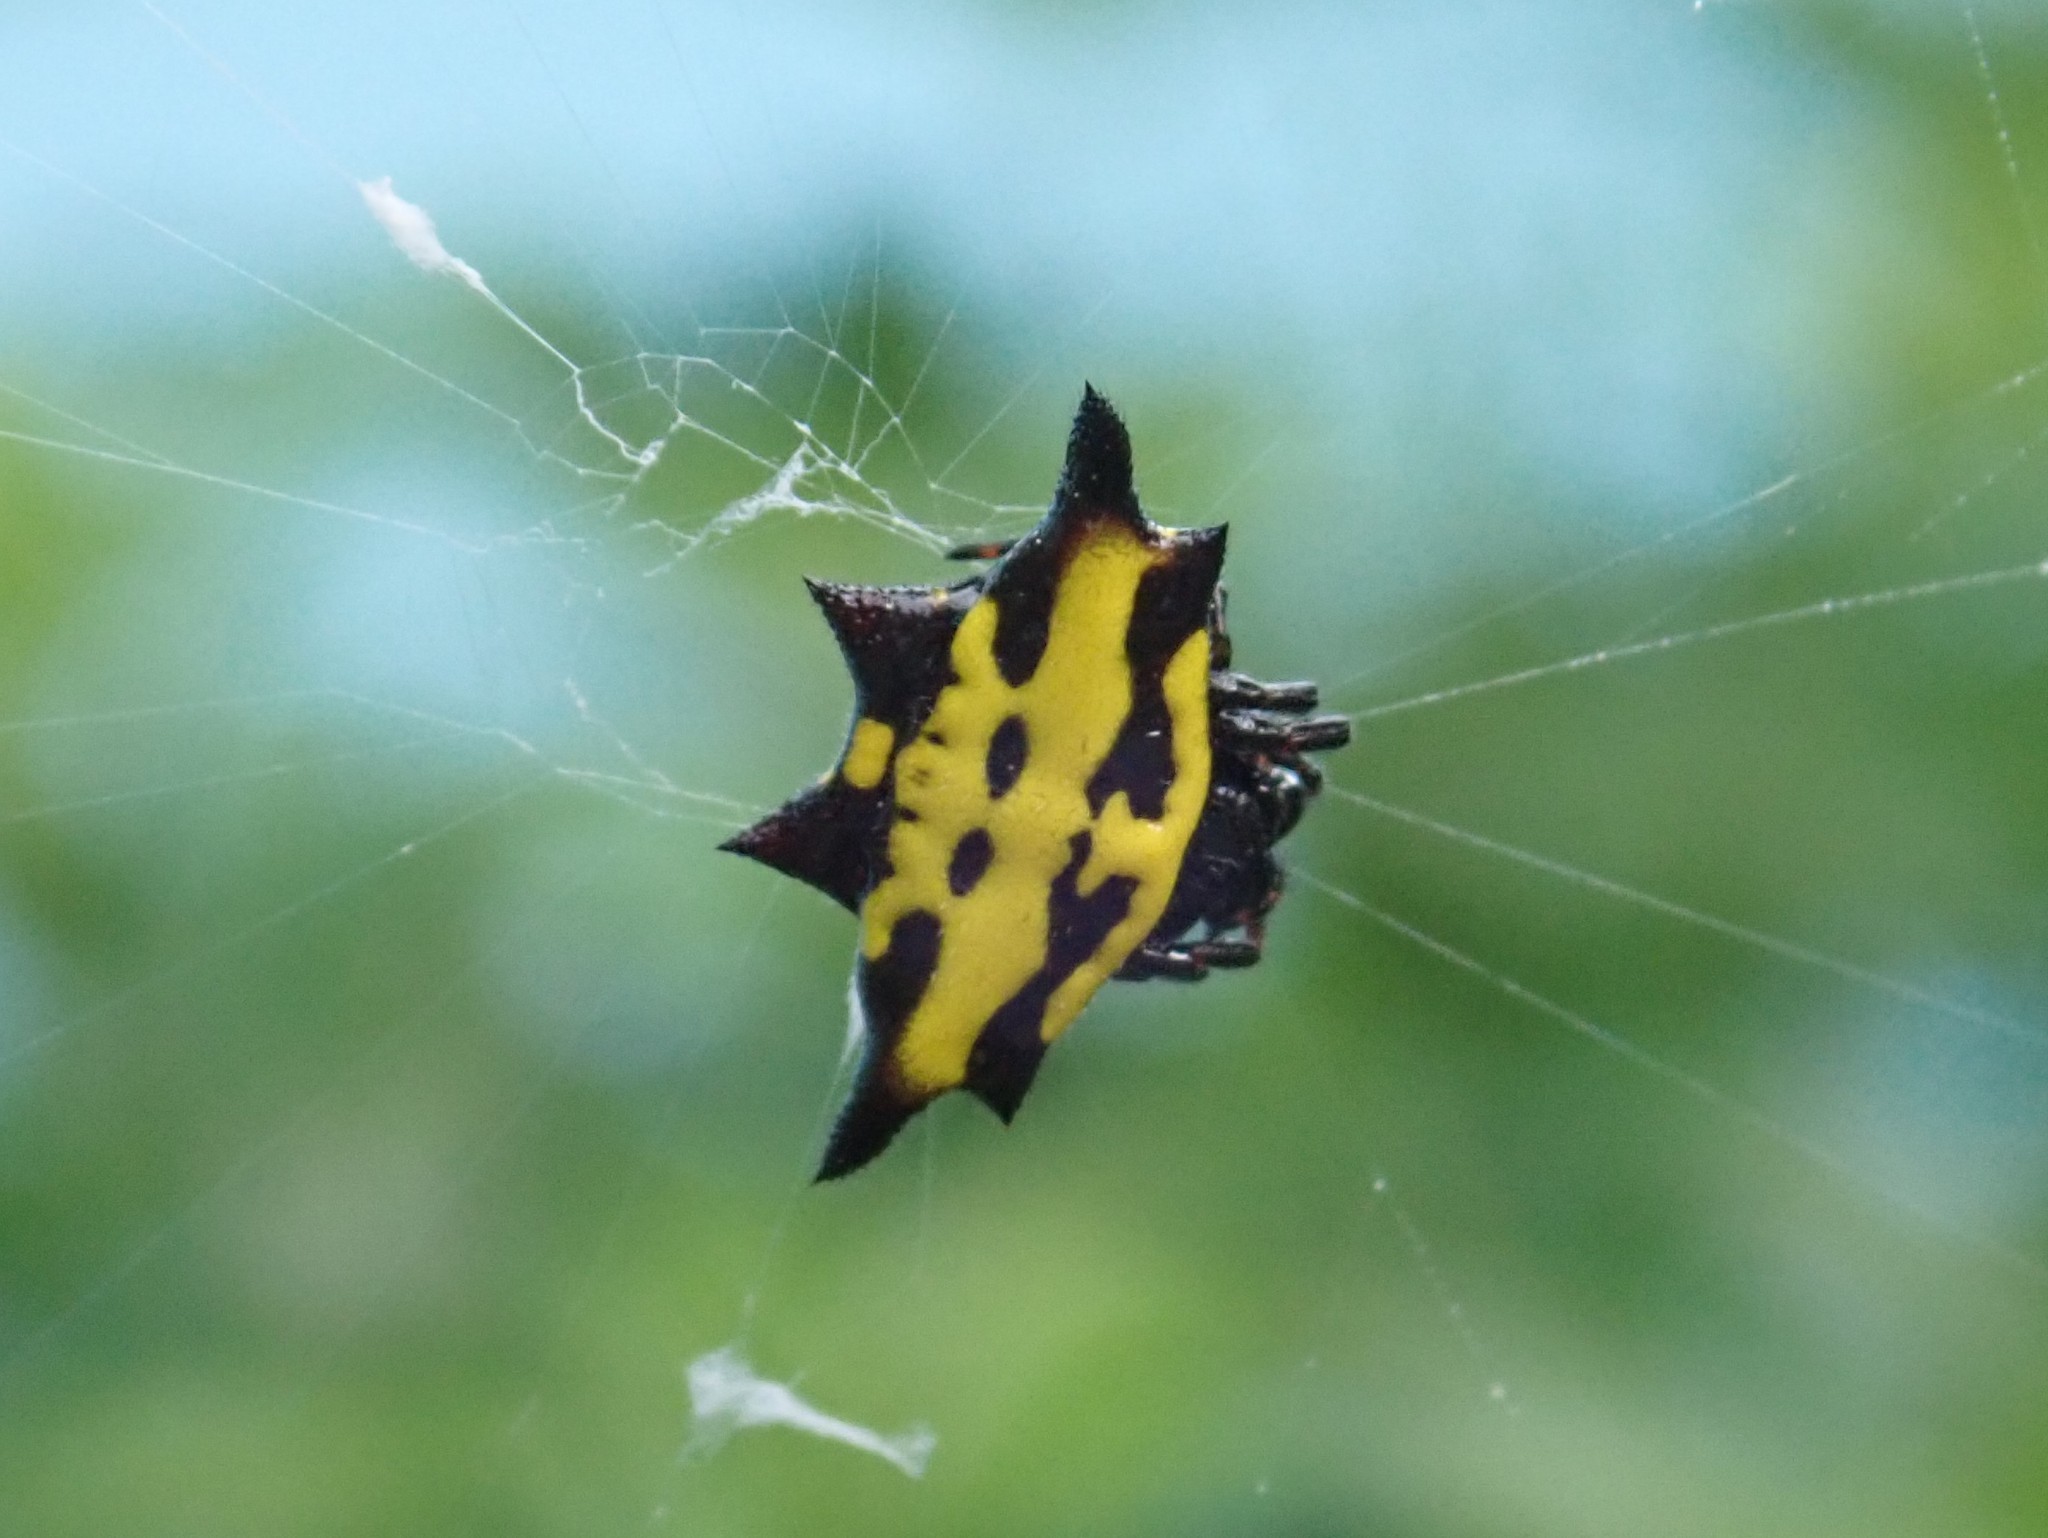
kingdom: Animalia
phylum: Arthropoda
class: Arachnida
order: Araneae
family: Araneidae
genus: Gasteracantha
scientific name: Gasteracantha panisicca
